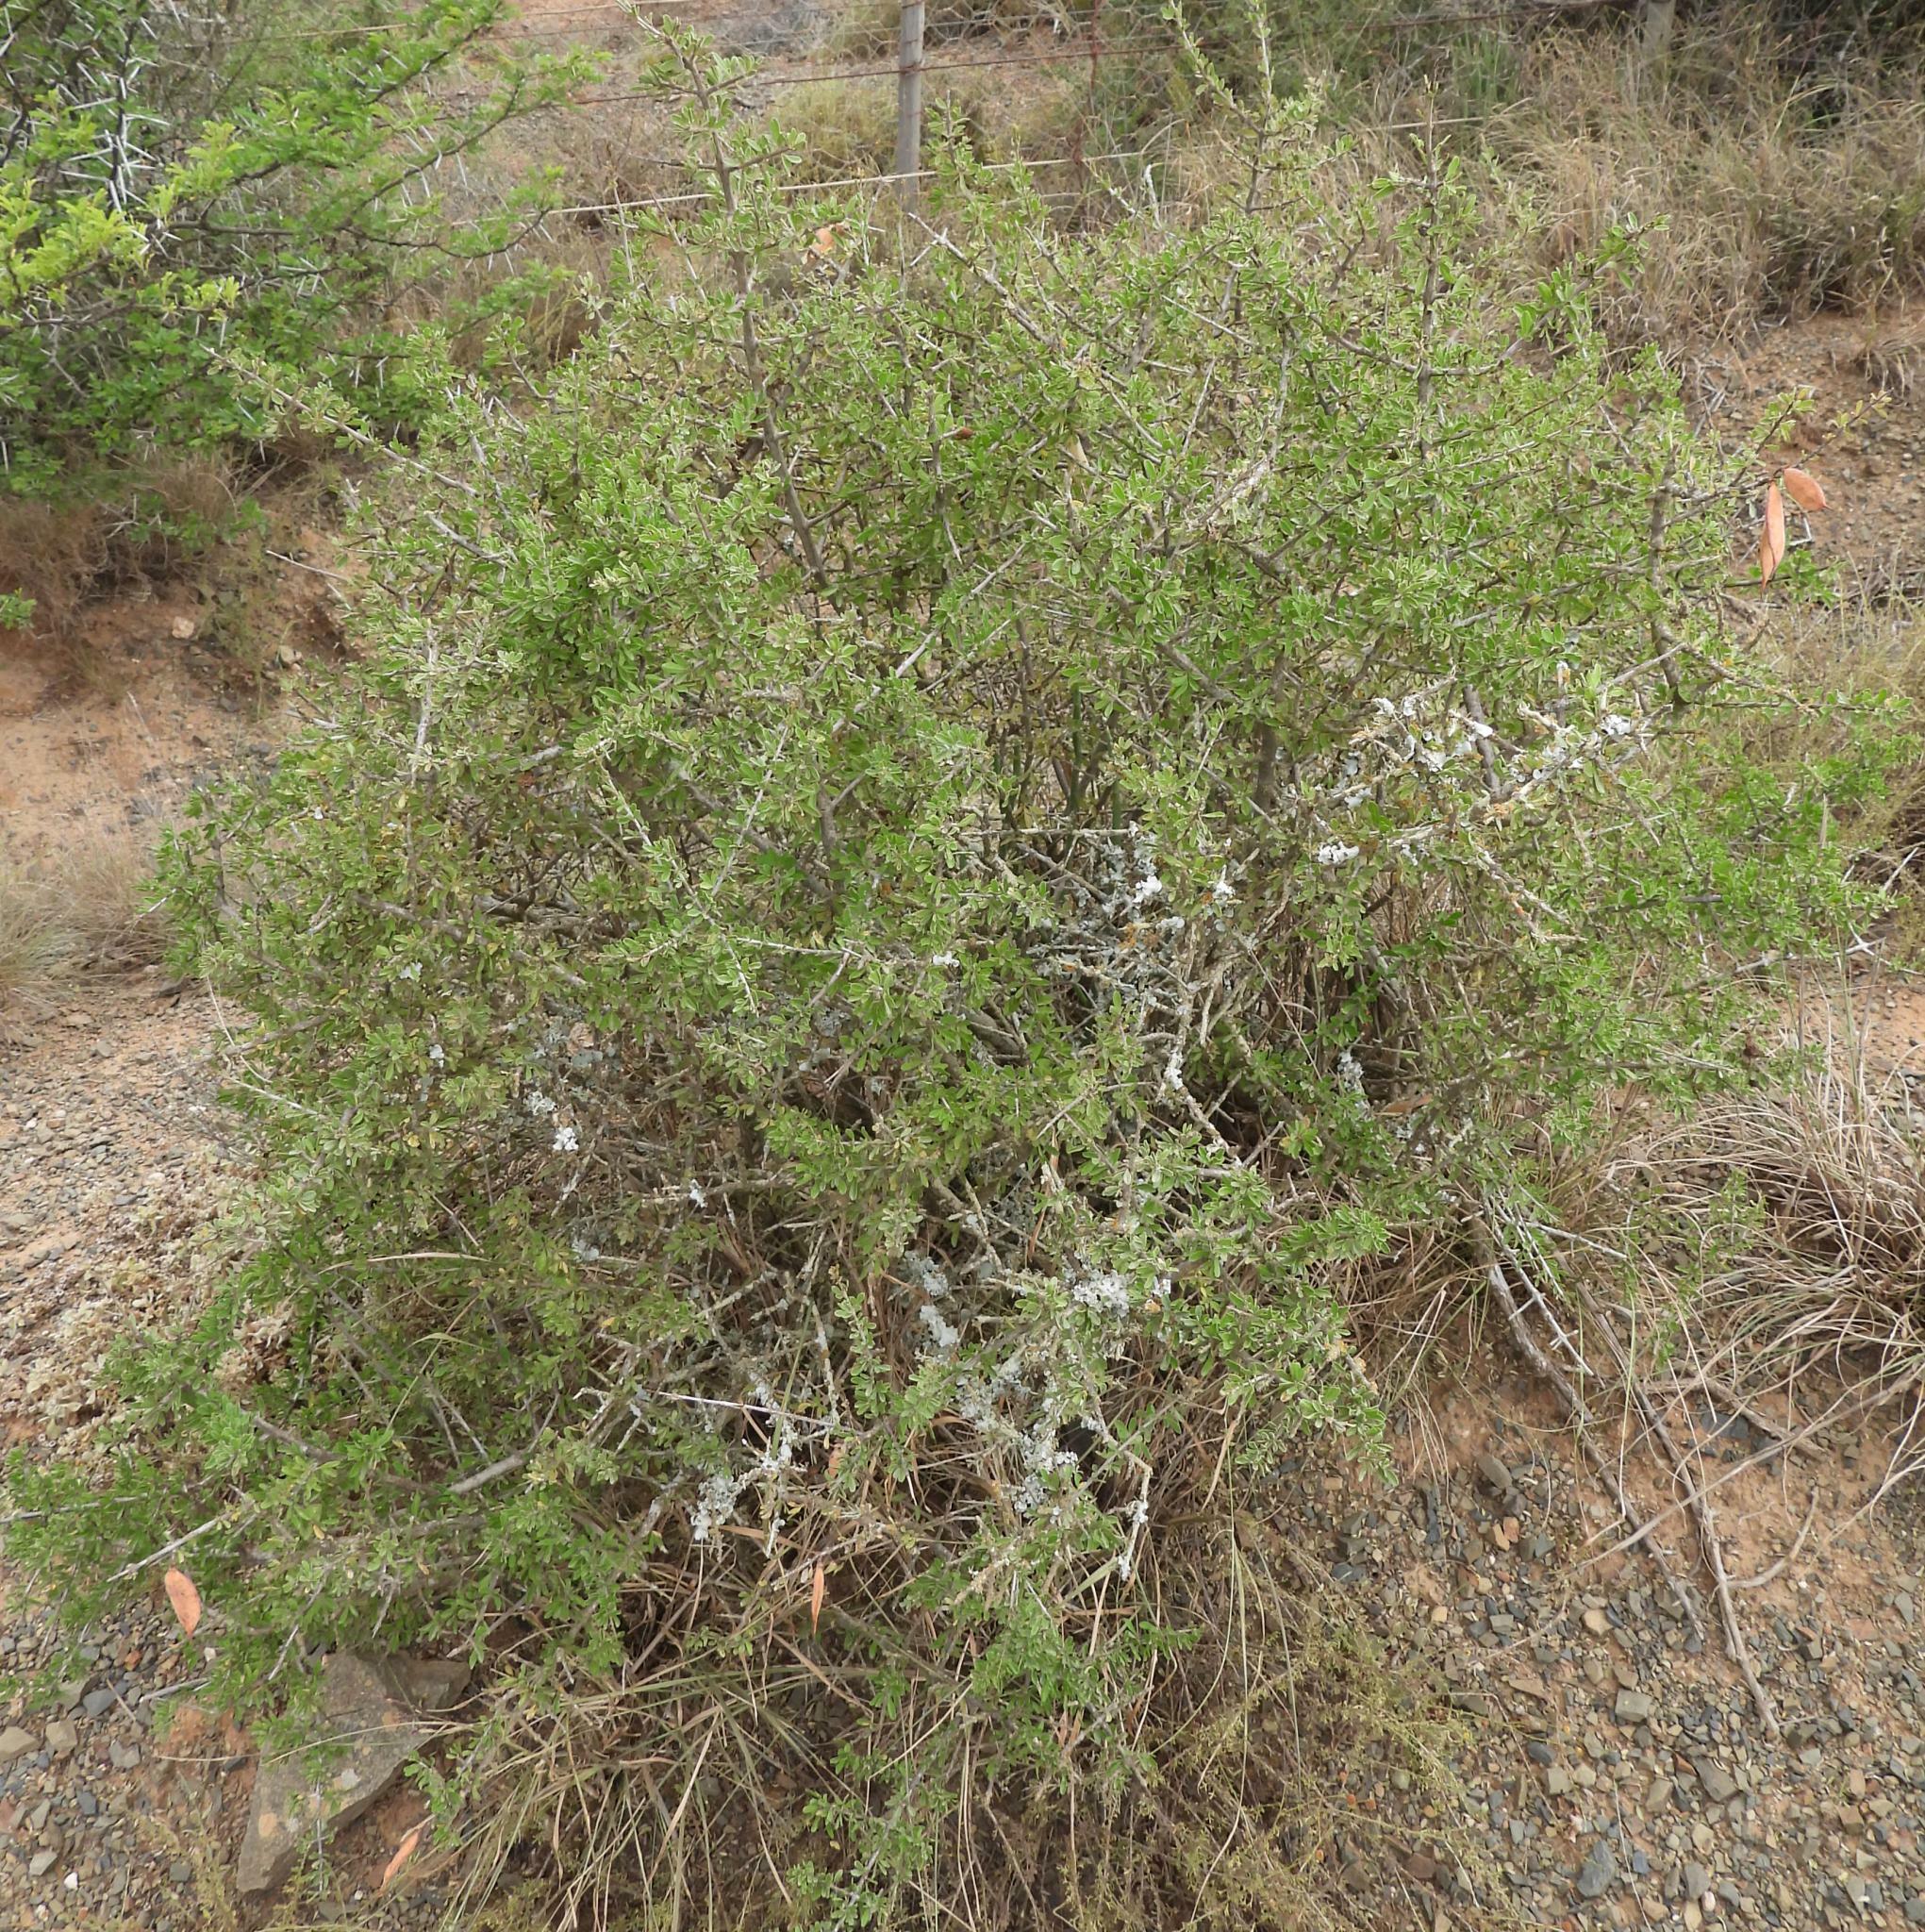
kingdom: Plantae
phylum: Tracheophyta
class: Magnoliopsida
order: Lamiales
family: Bignoniaceae
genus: Rhigozum
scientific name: Rhigozum obovatum
